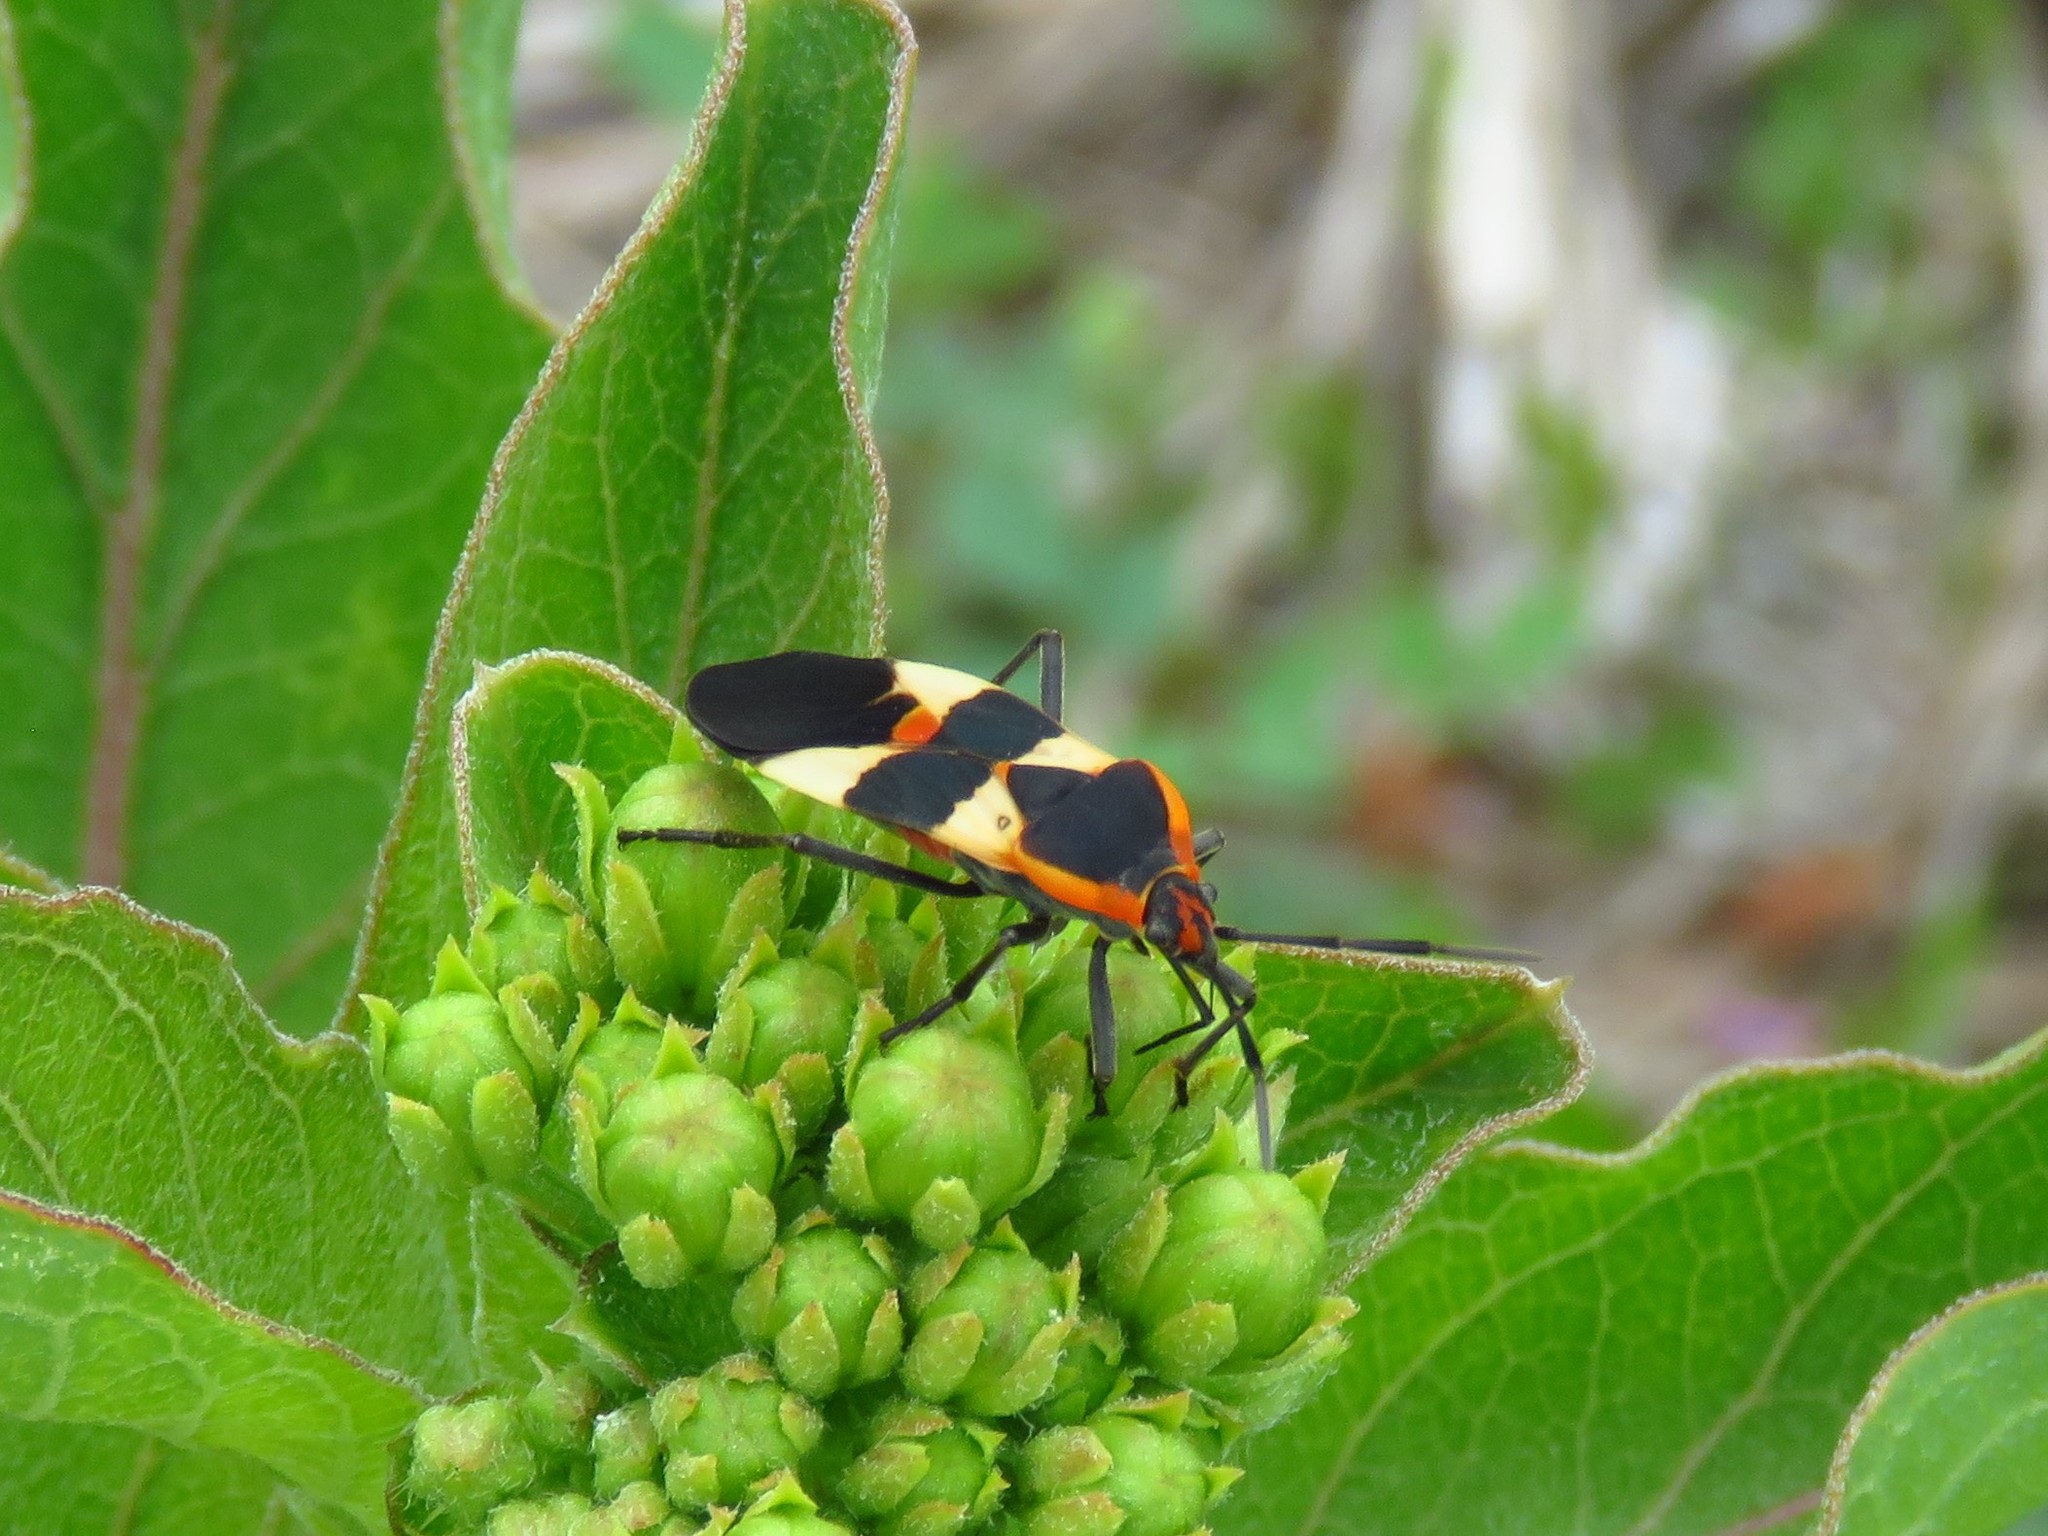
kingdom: Animalia
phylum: Arthropoda
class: Insecta
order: Hemiptera
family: Lygaeidae
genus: Oncopeltus
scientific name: Oncopeltus fasciatus
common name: Large milkweed bug
